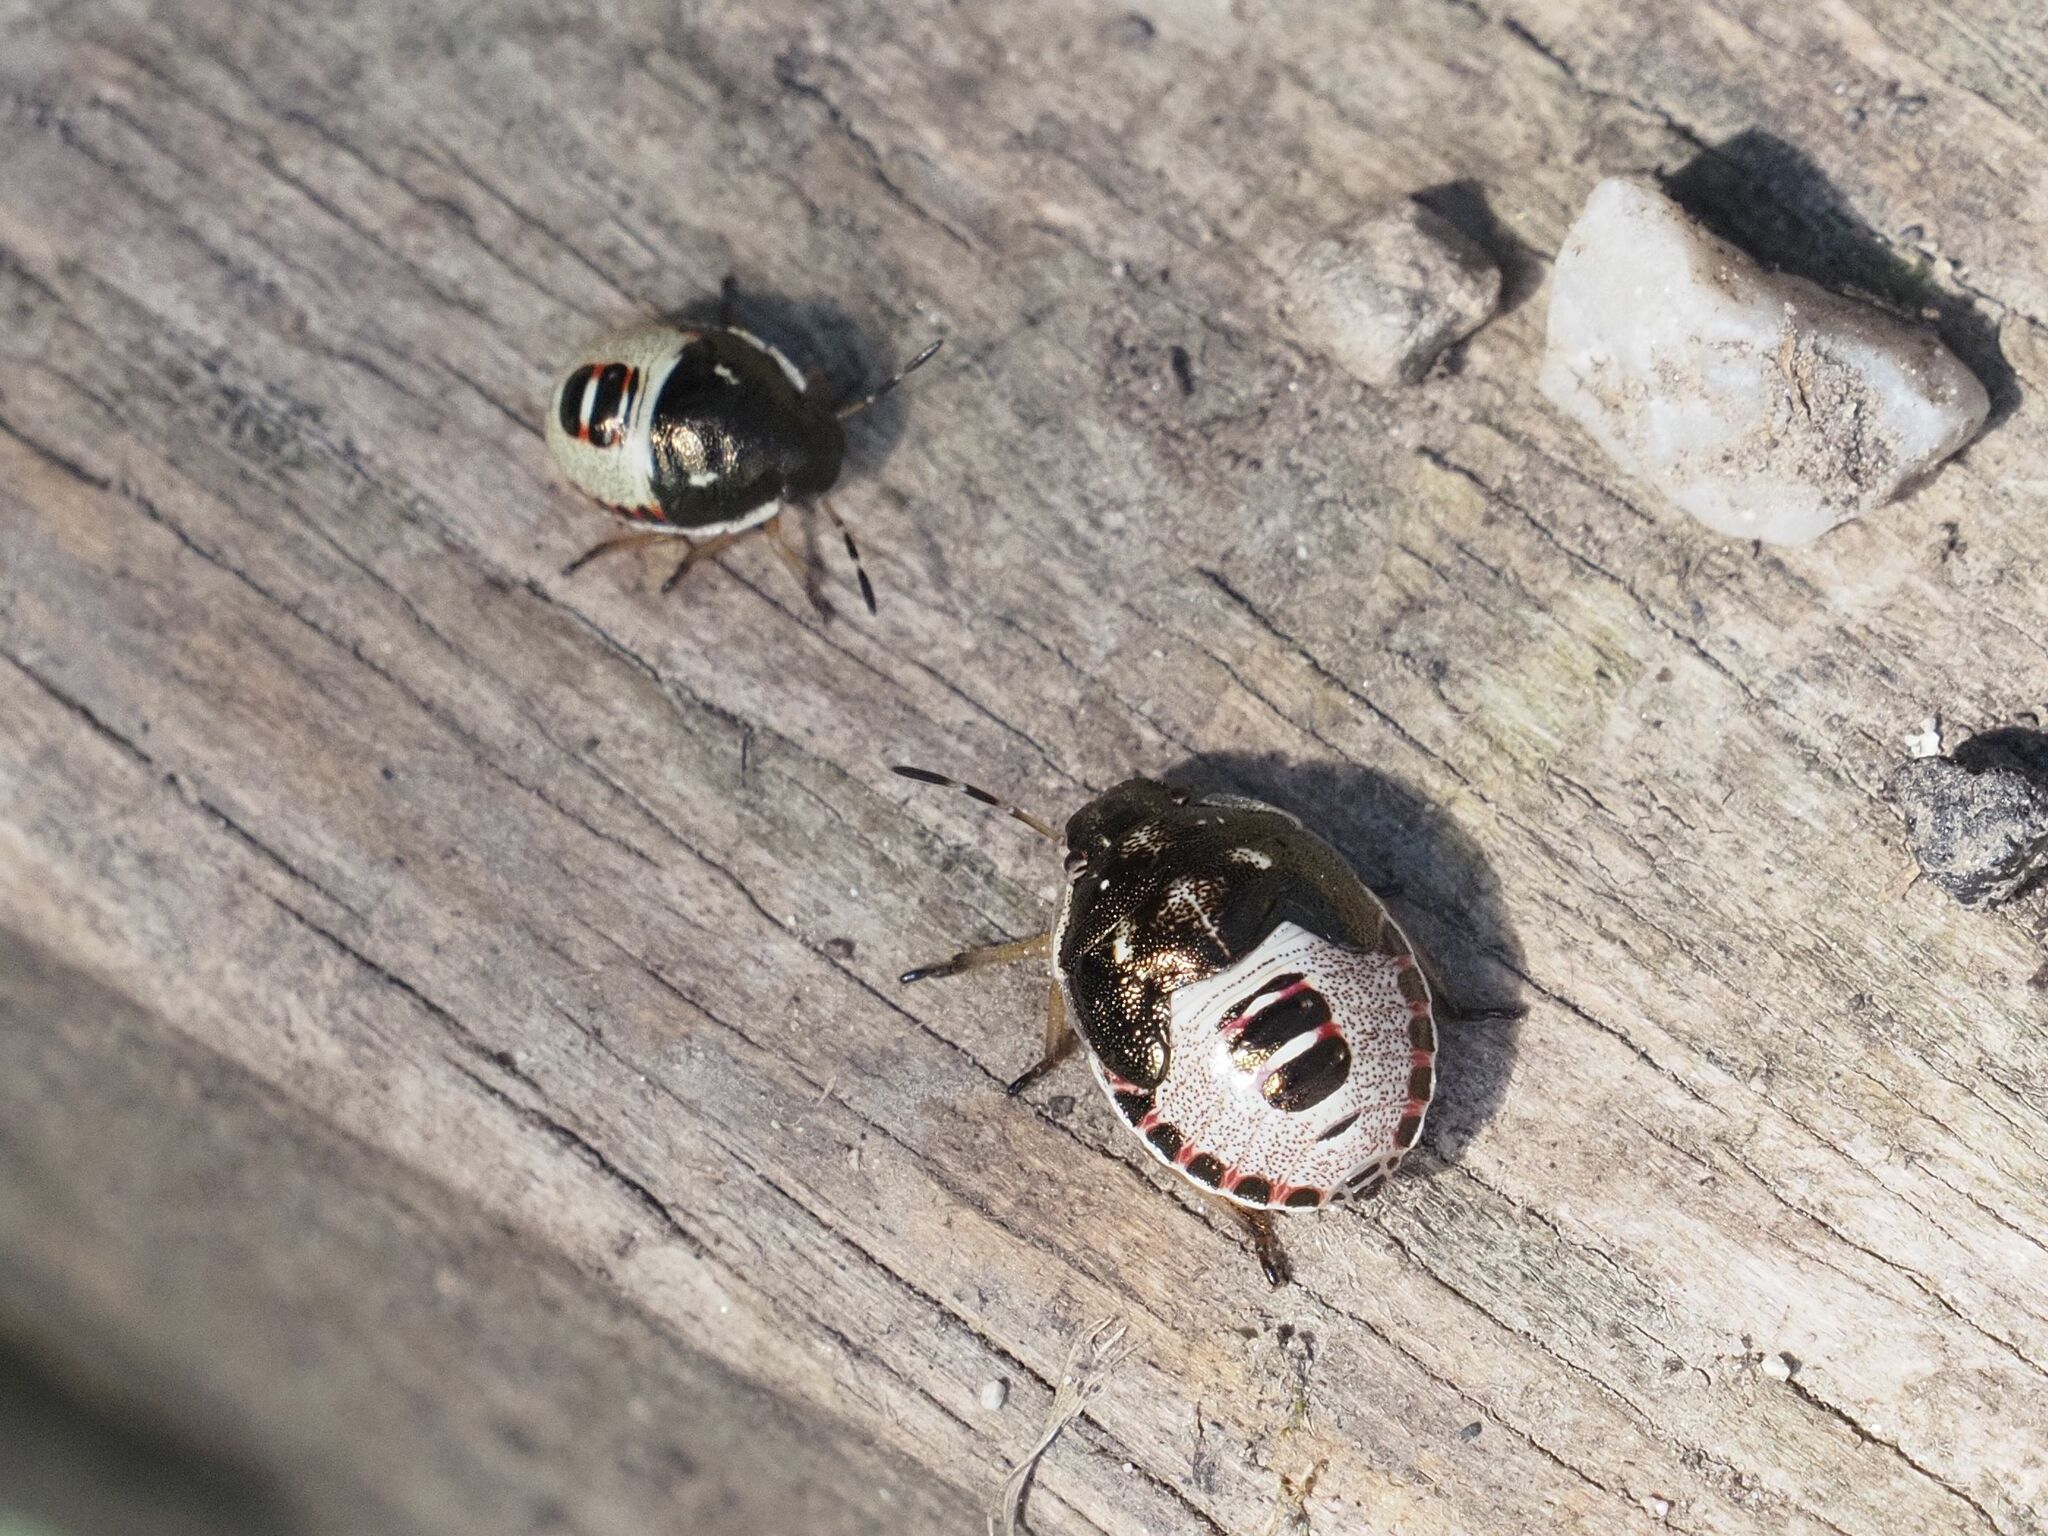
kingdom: Animalia
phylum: Arthropoda
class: Insecta
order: Hemiptera
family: Pentatomidae
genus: Holcostethus
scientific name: Holcostethus sphacelatus
